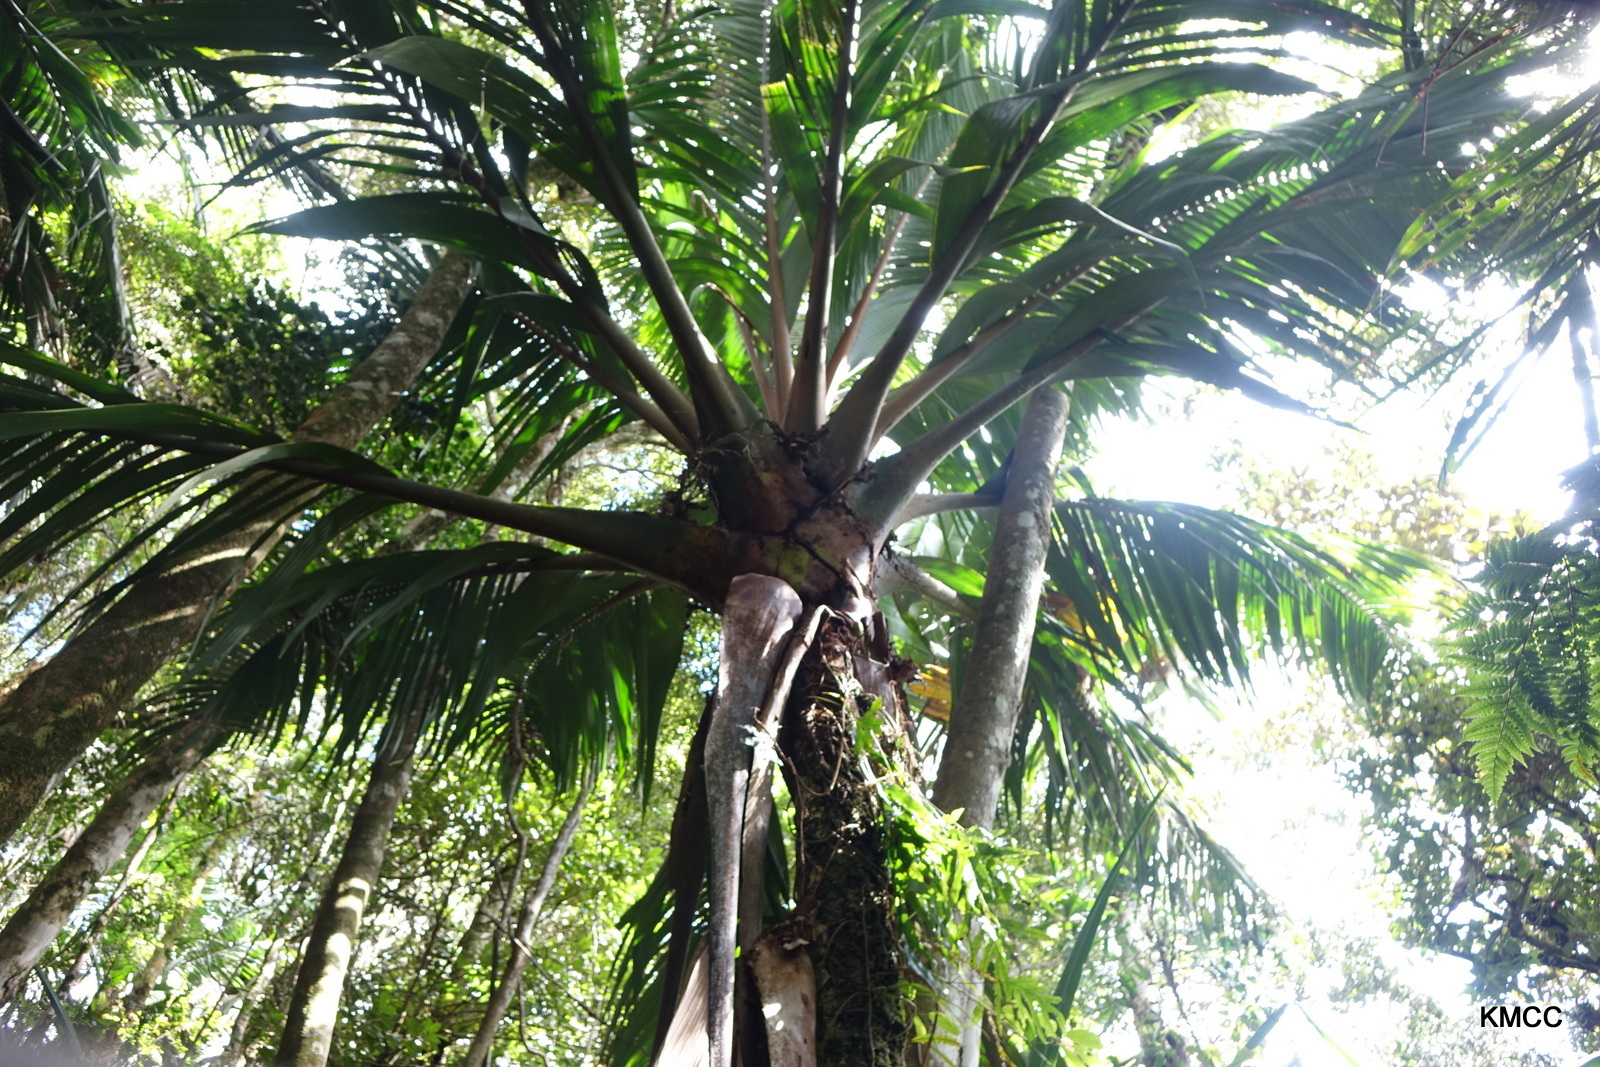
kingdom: Plantae
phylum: Tracheophyta
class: Liliopsida
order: Arecales
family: Arecaceae
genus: Marojejya
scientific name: Marojejya insignis
